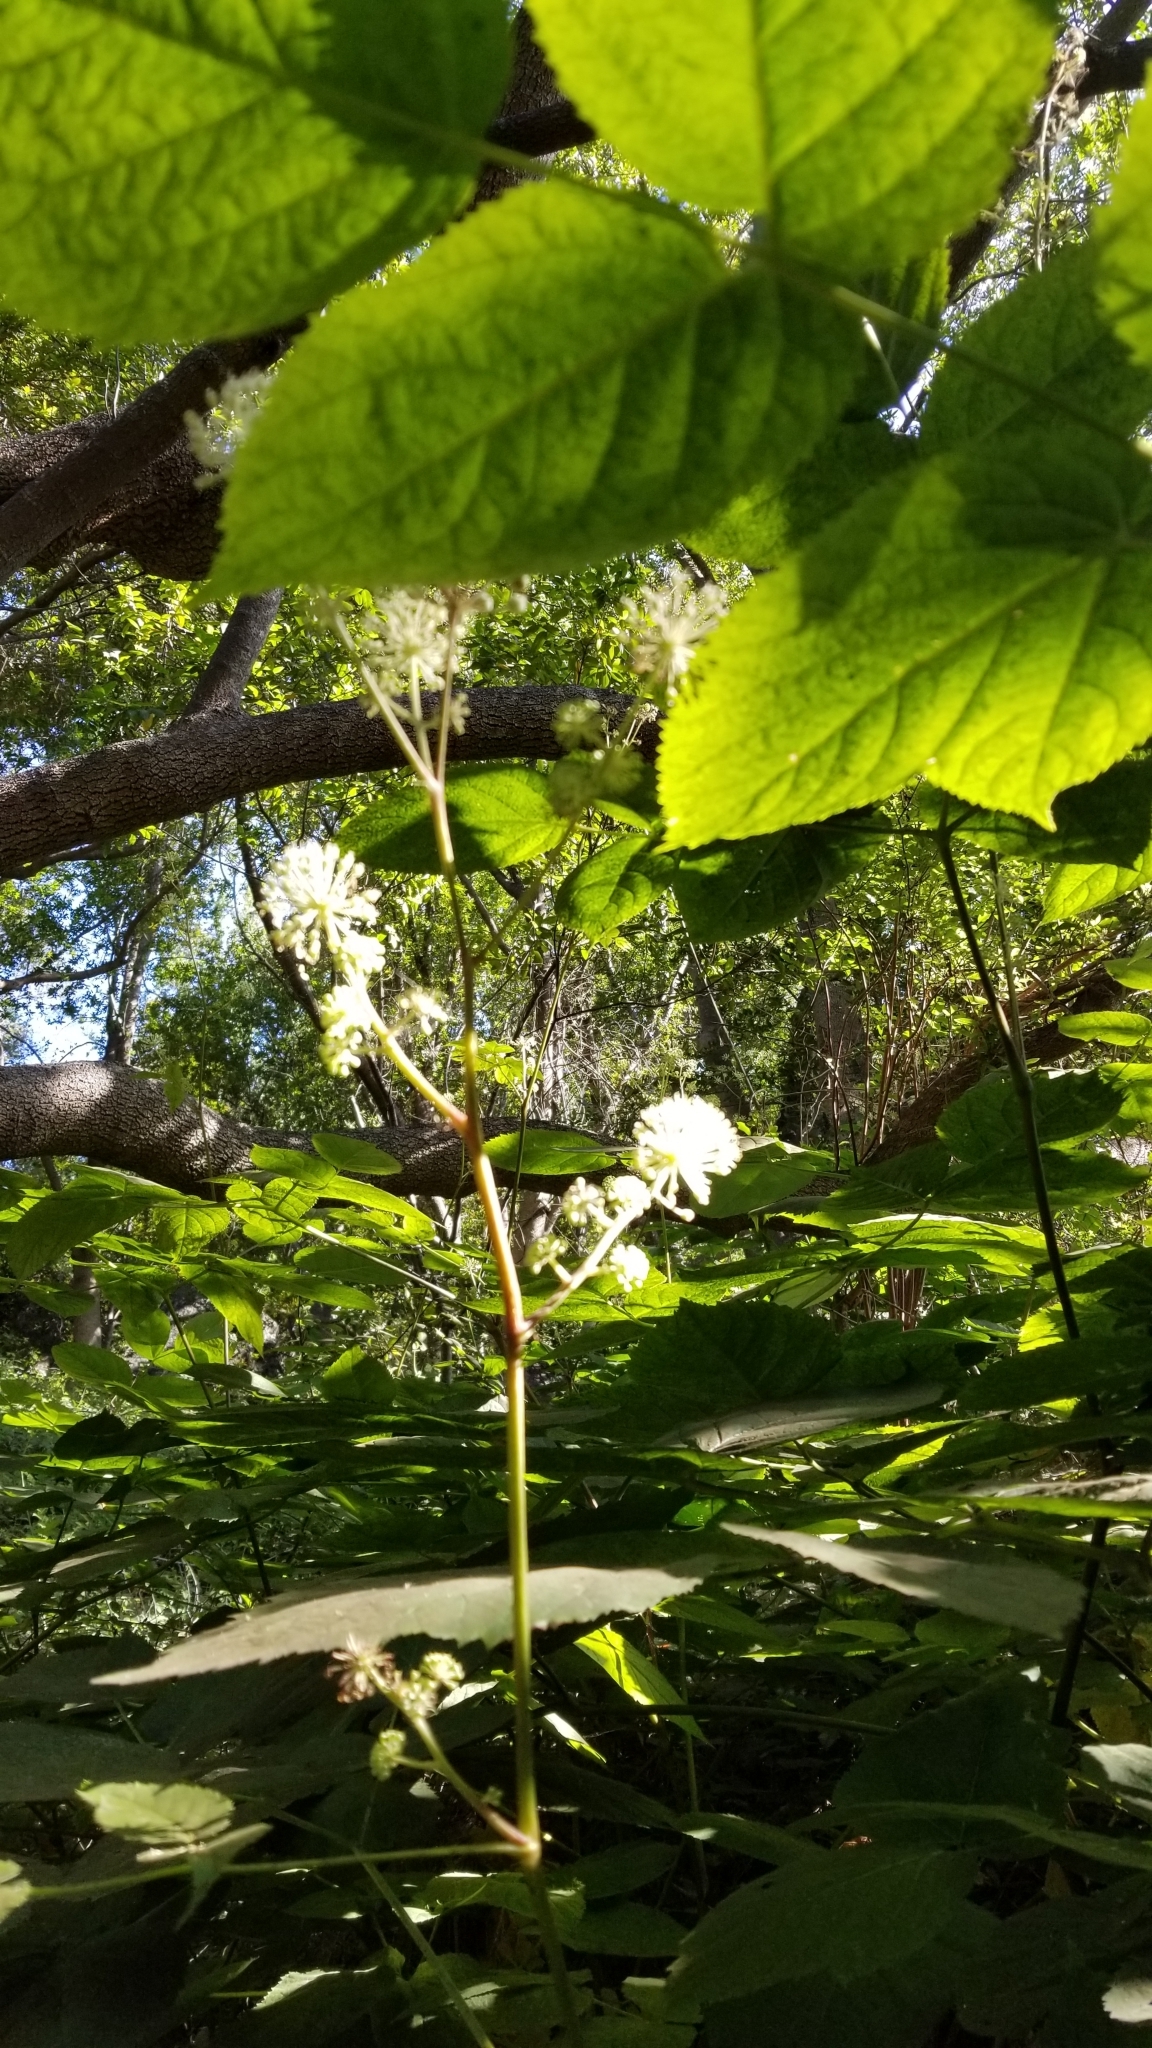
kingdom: Plantae
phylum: Tracheophyta
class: Magnoliopsida
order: Apiales
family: Araliaceae
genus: Aralia
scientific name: Aralia californica
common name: California-ginseng
